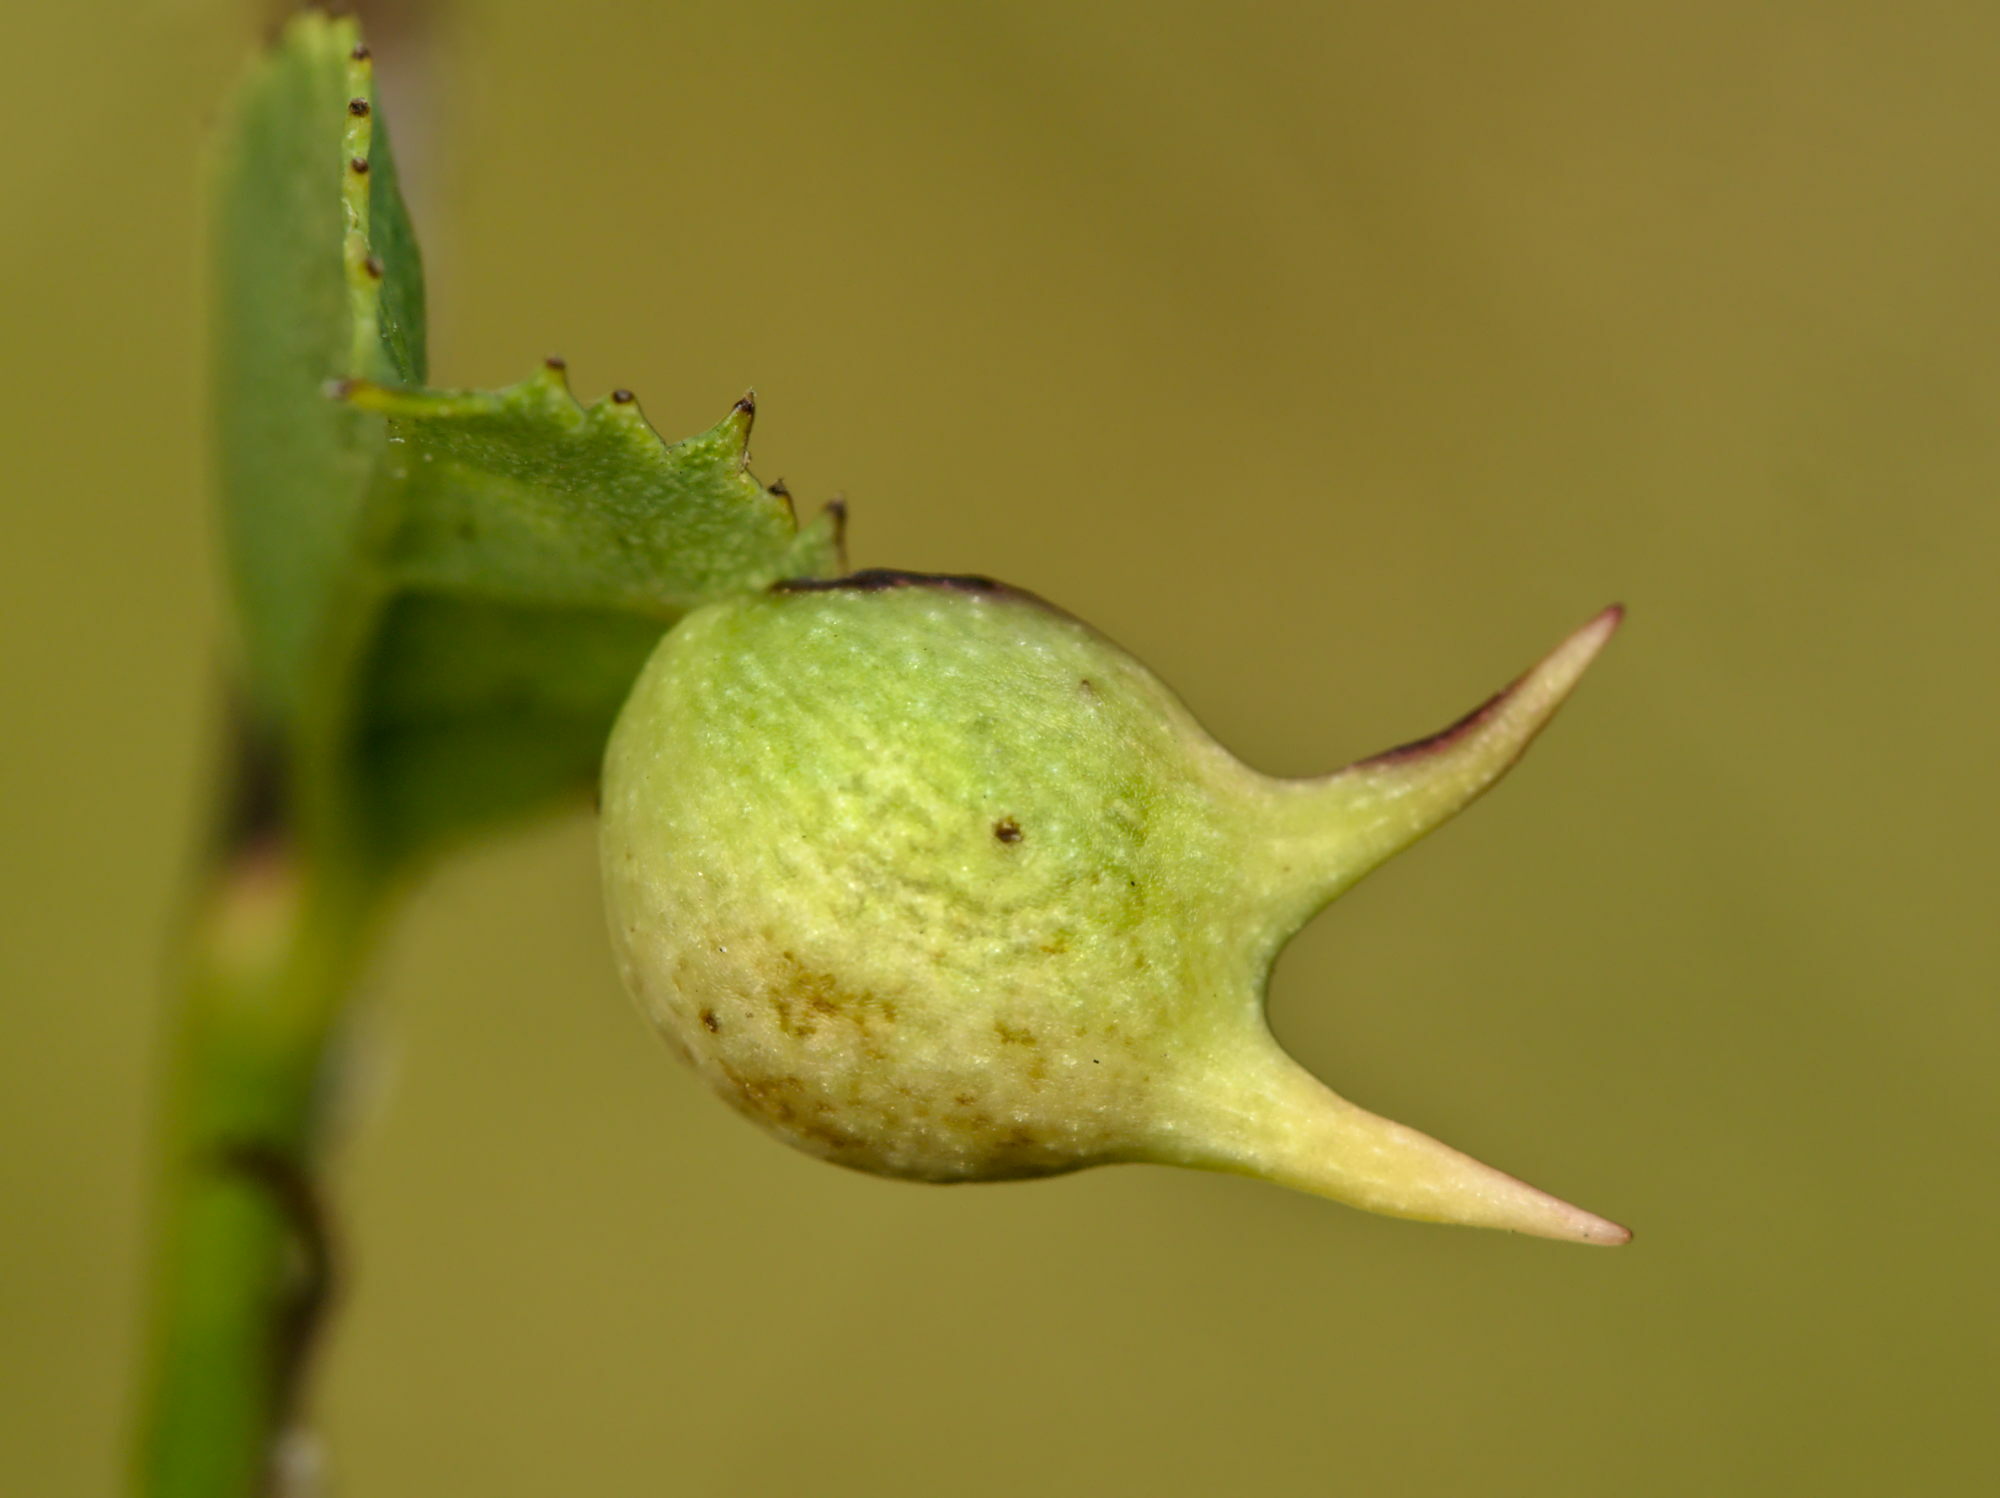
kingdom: Animalia
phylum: Arthropoda
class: Insecta
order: Hymenoptera
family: Cynipidae
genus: Diplolepis
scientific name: Diplolepis nervosa
